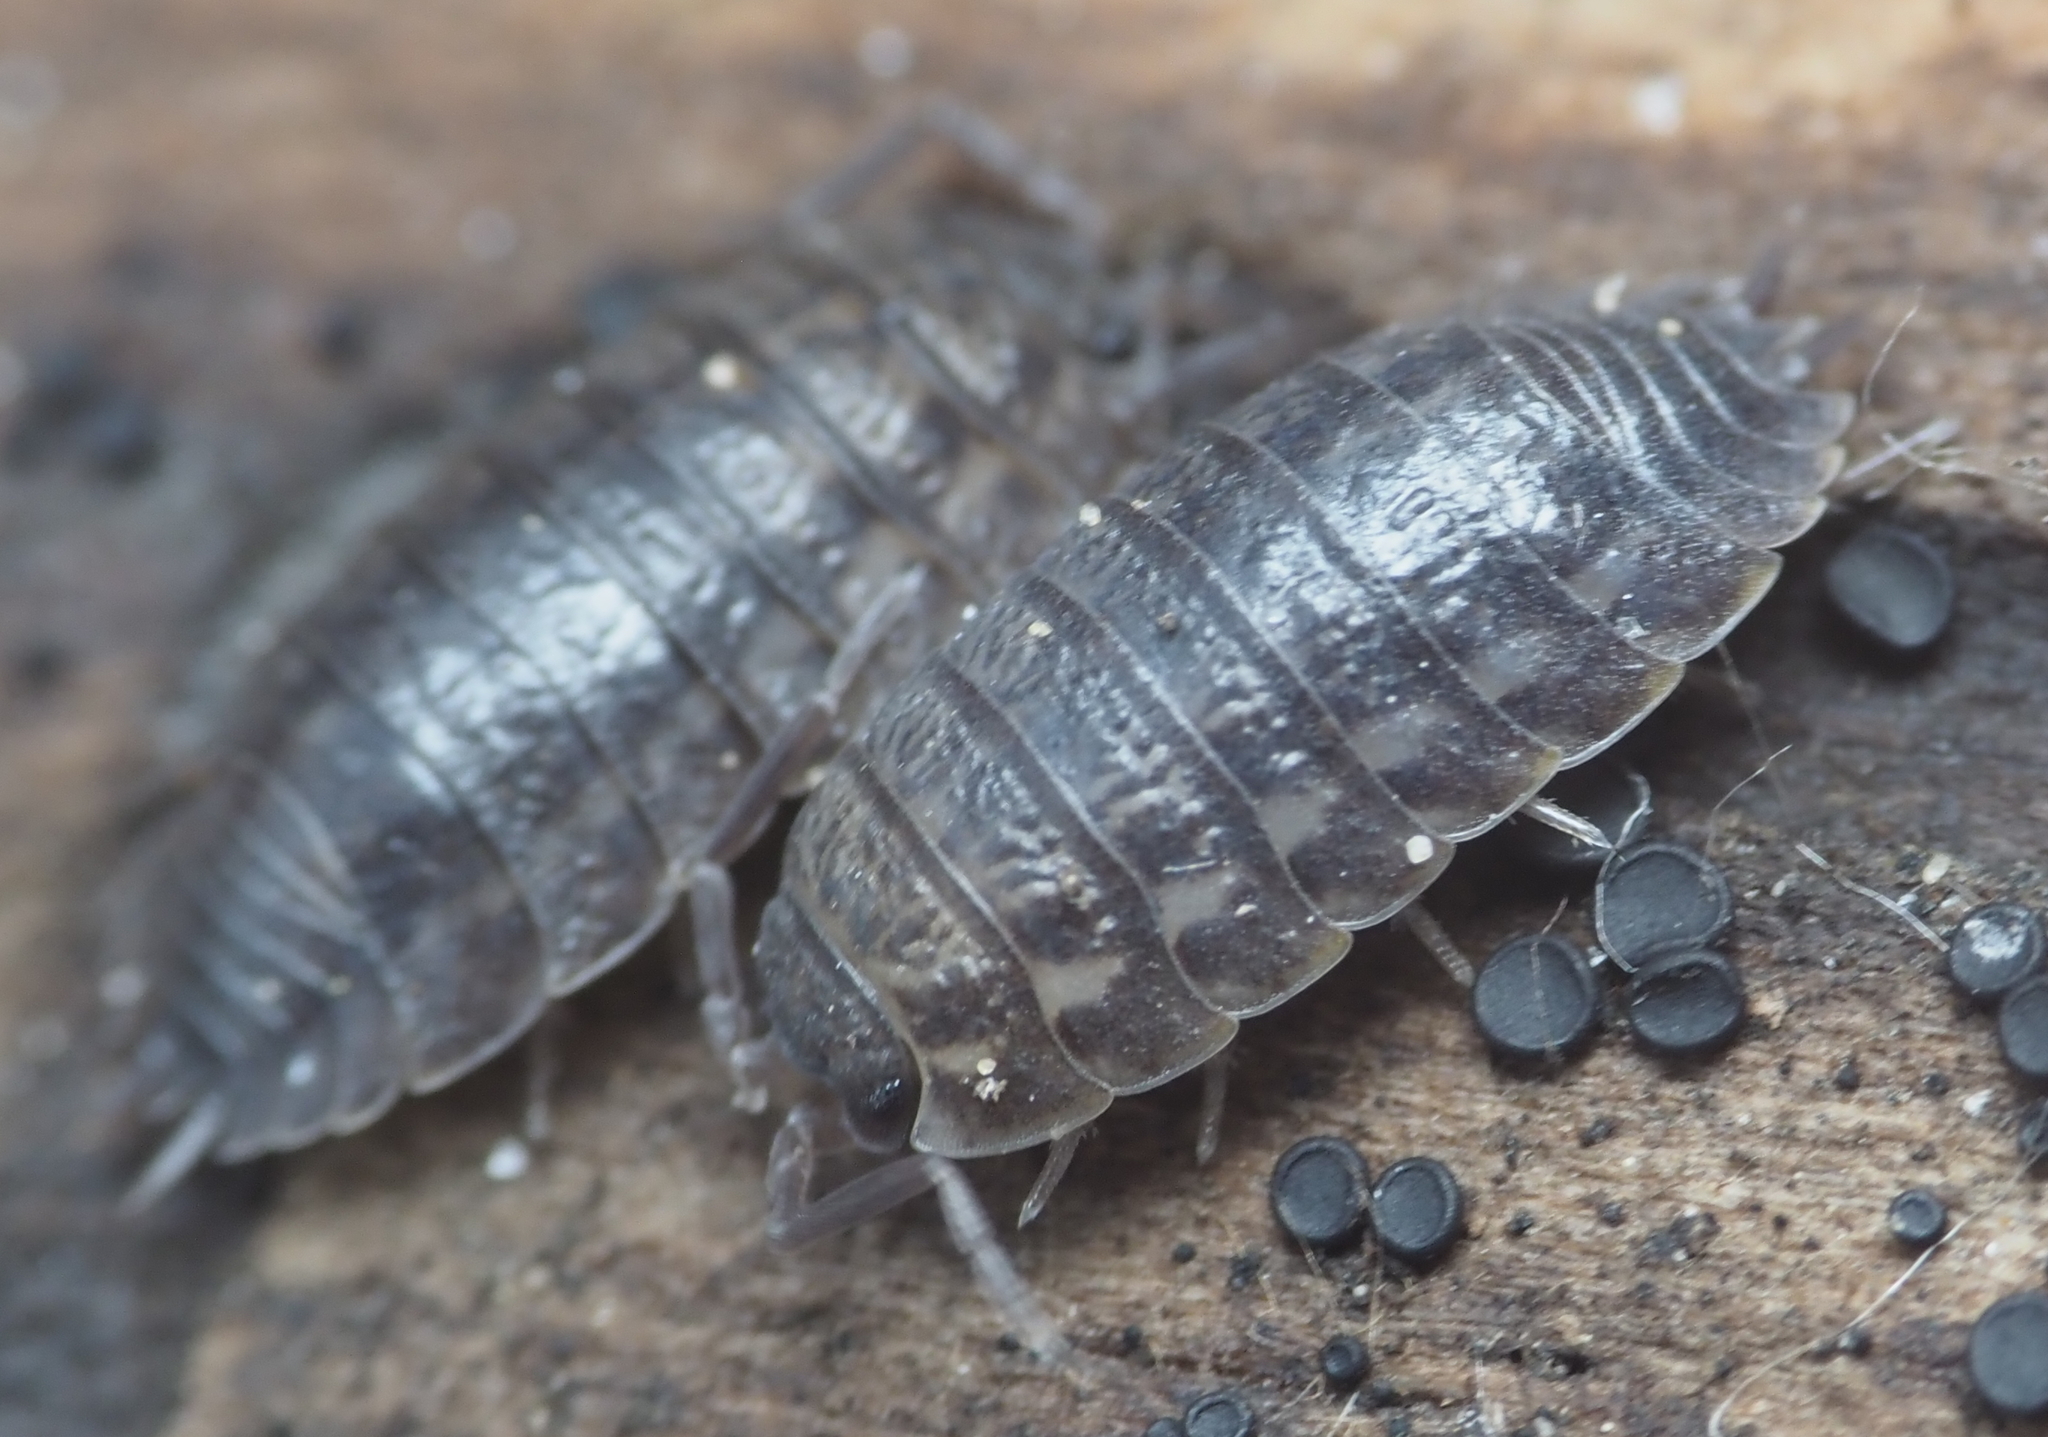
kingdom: Animalia
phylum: Arthropoda
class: Malacostraca
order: Isopoda
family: Trachelipodidae
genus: Trachelipus
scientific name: Trachelipus rathkii
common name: Isopod
